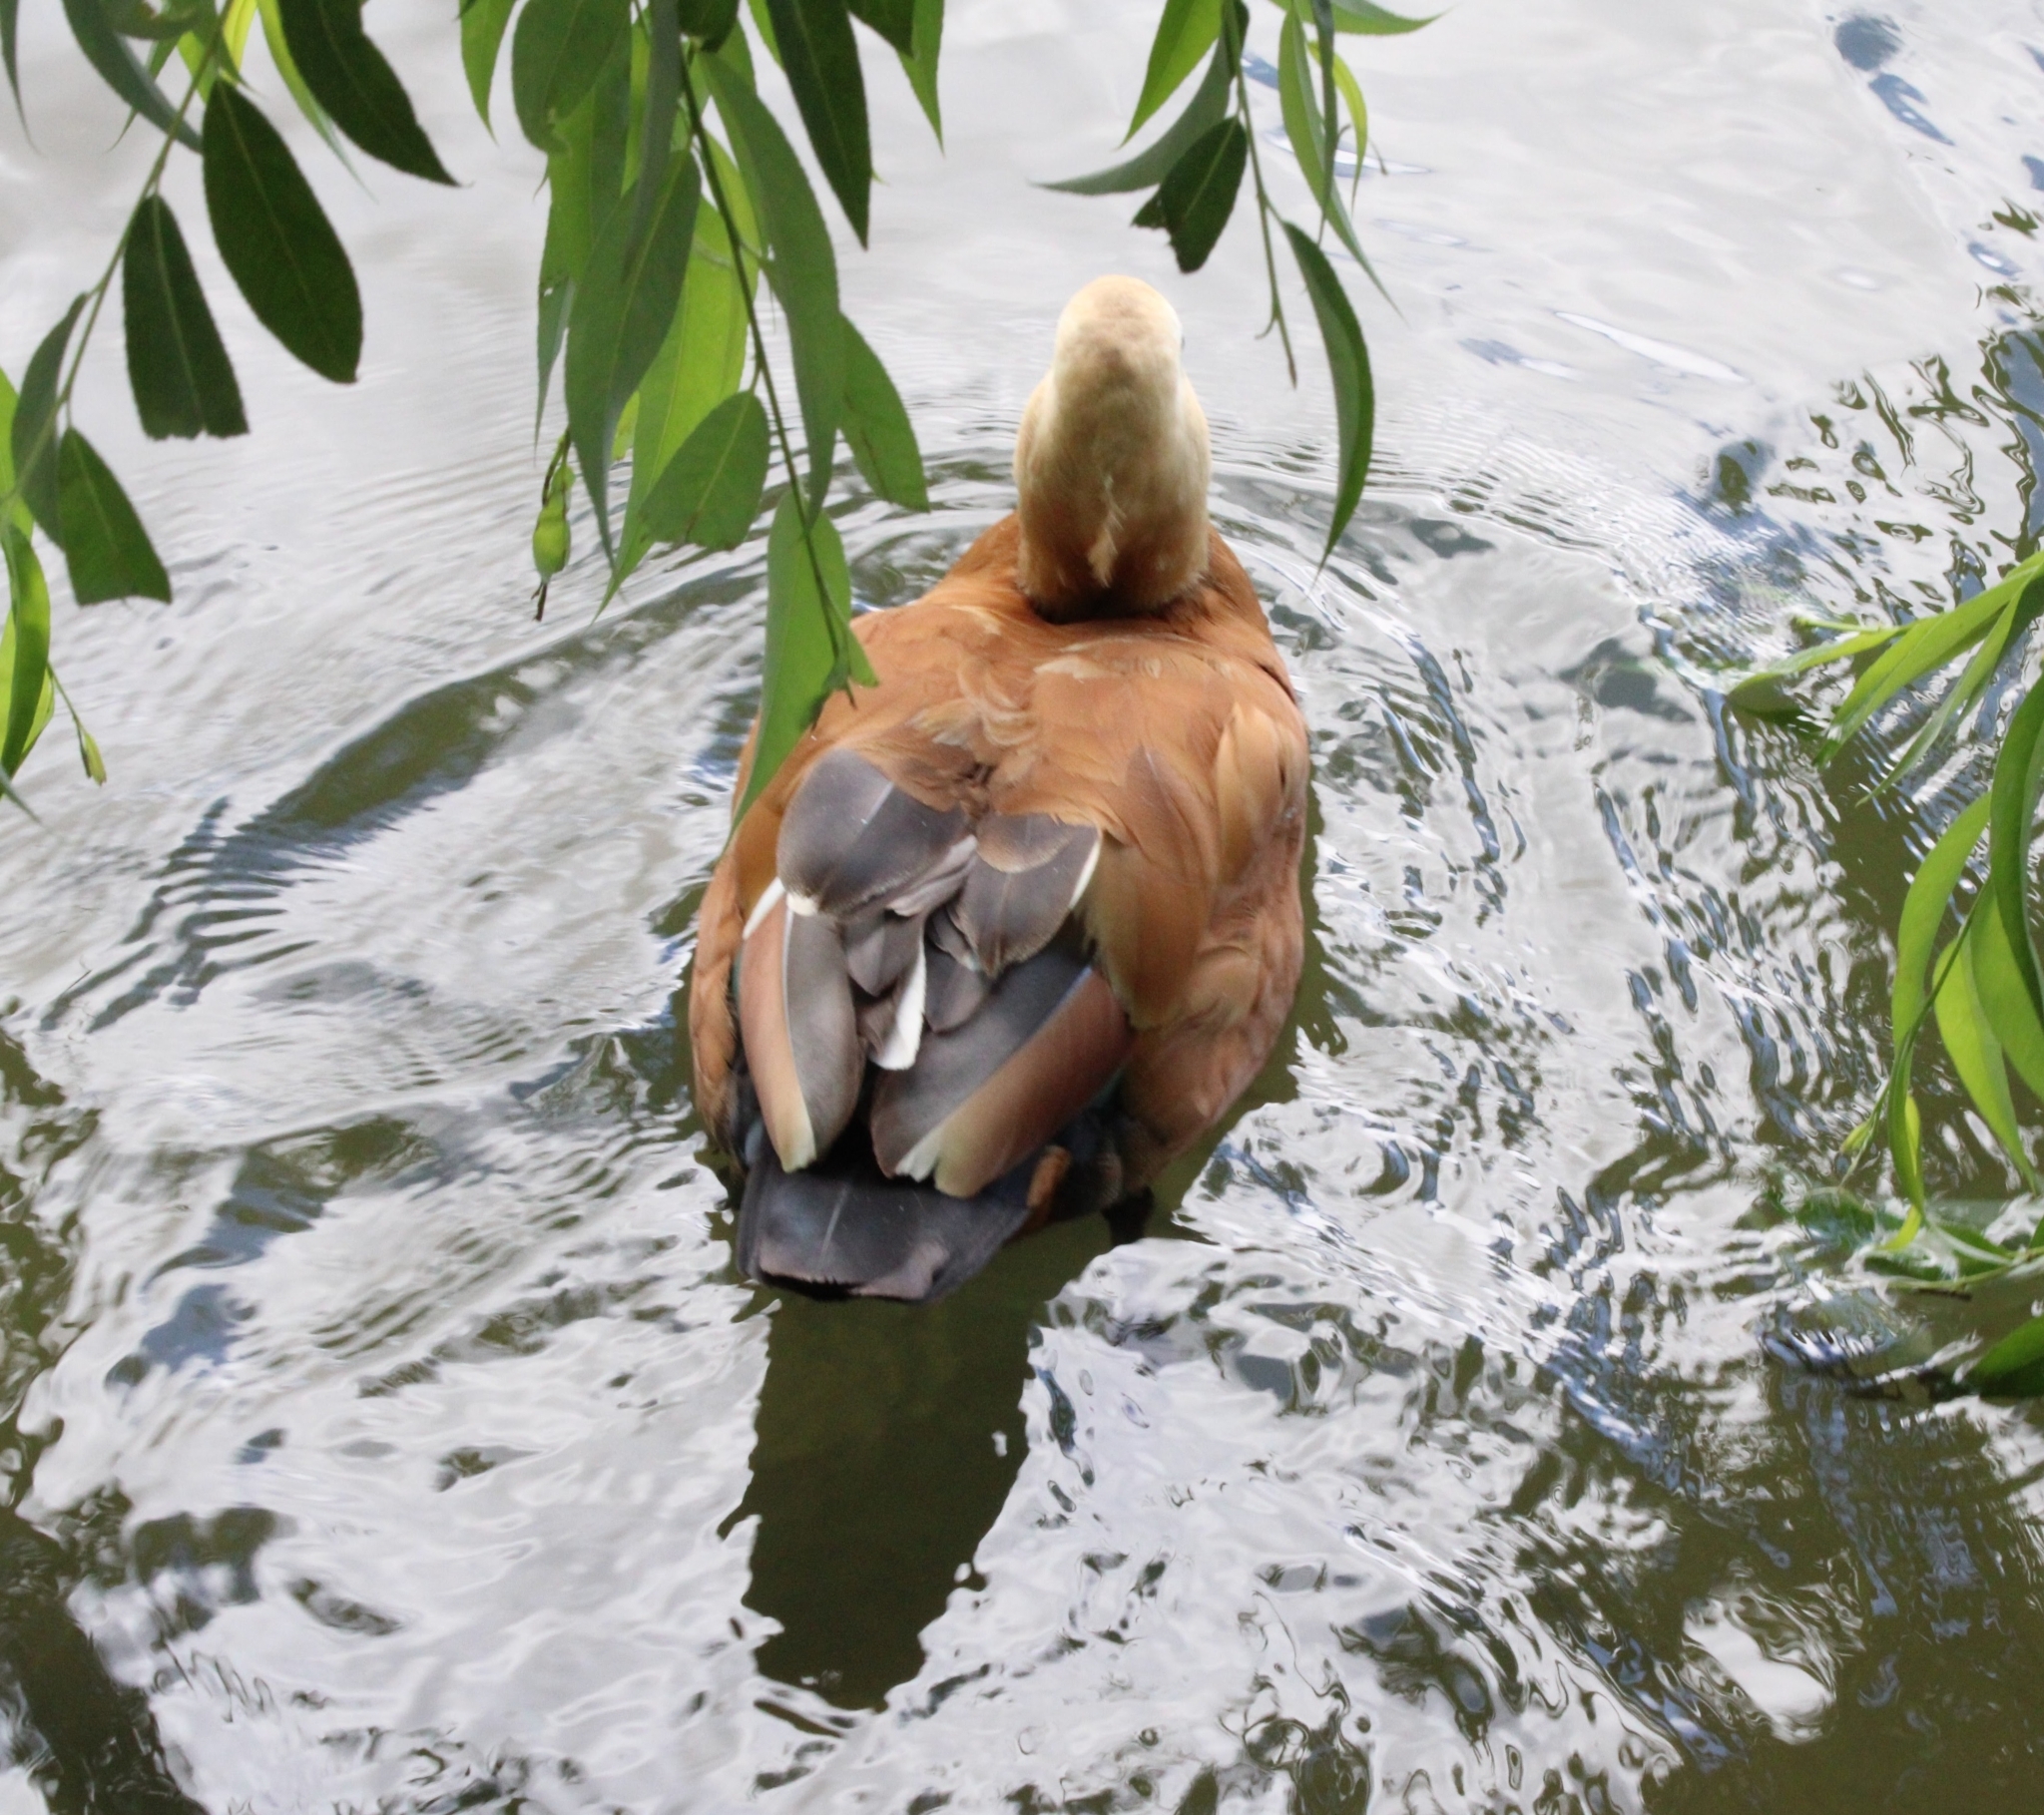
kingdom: Animalia
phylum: Chordata
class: Aves
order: Anseriformes
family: Anatidae
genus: Tadorna
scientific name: Tadorna ferruginea
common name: Ruddy shelduck
